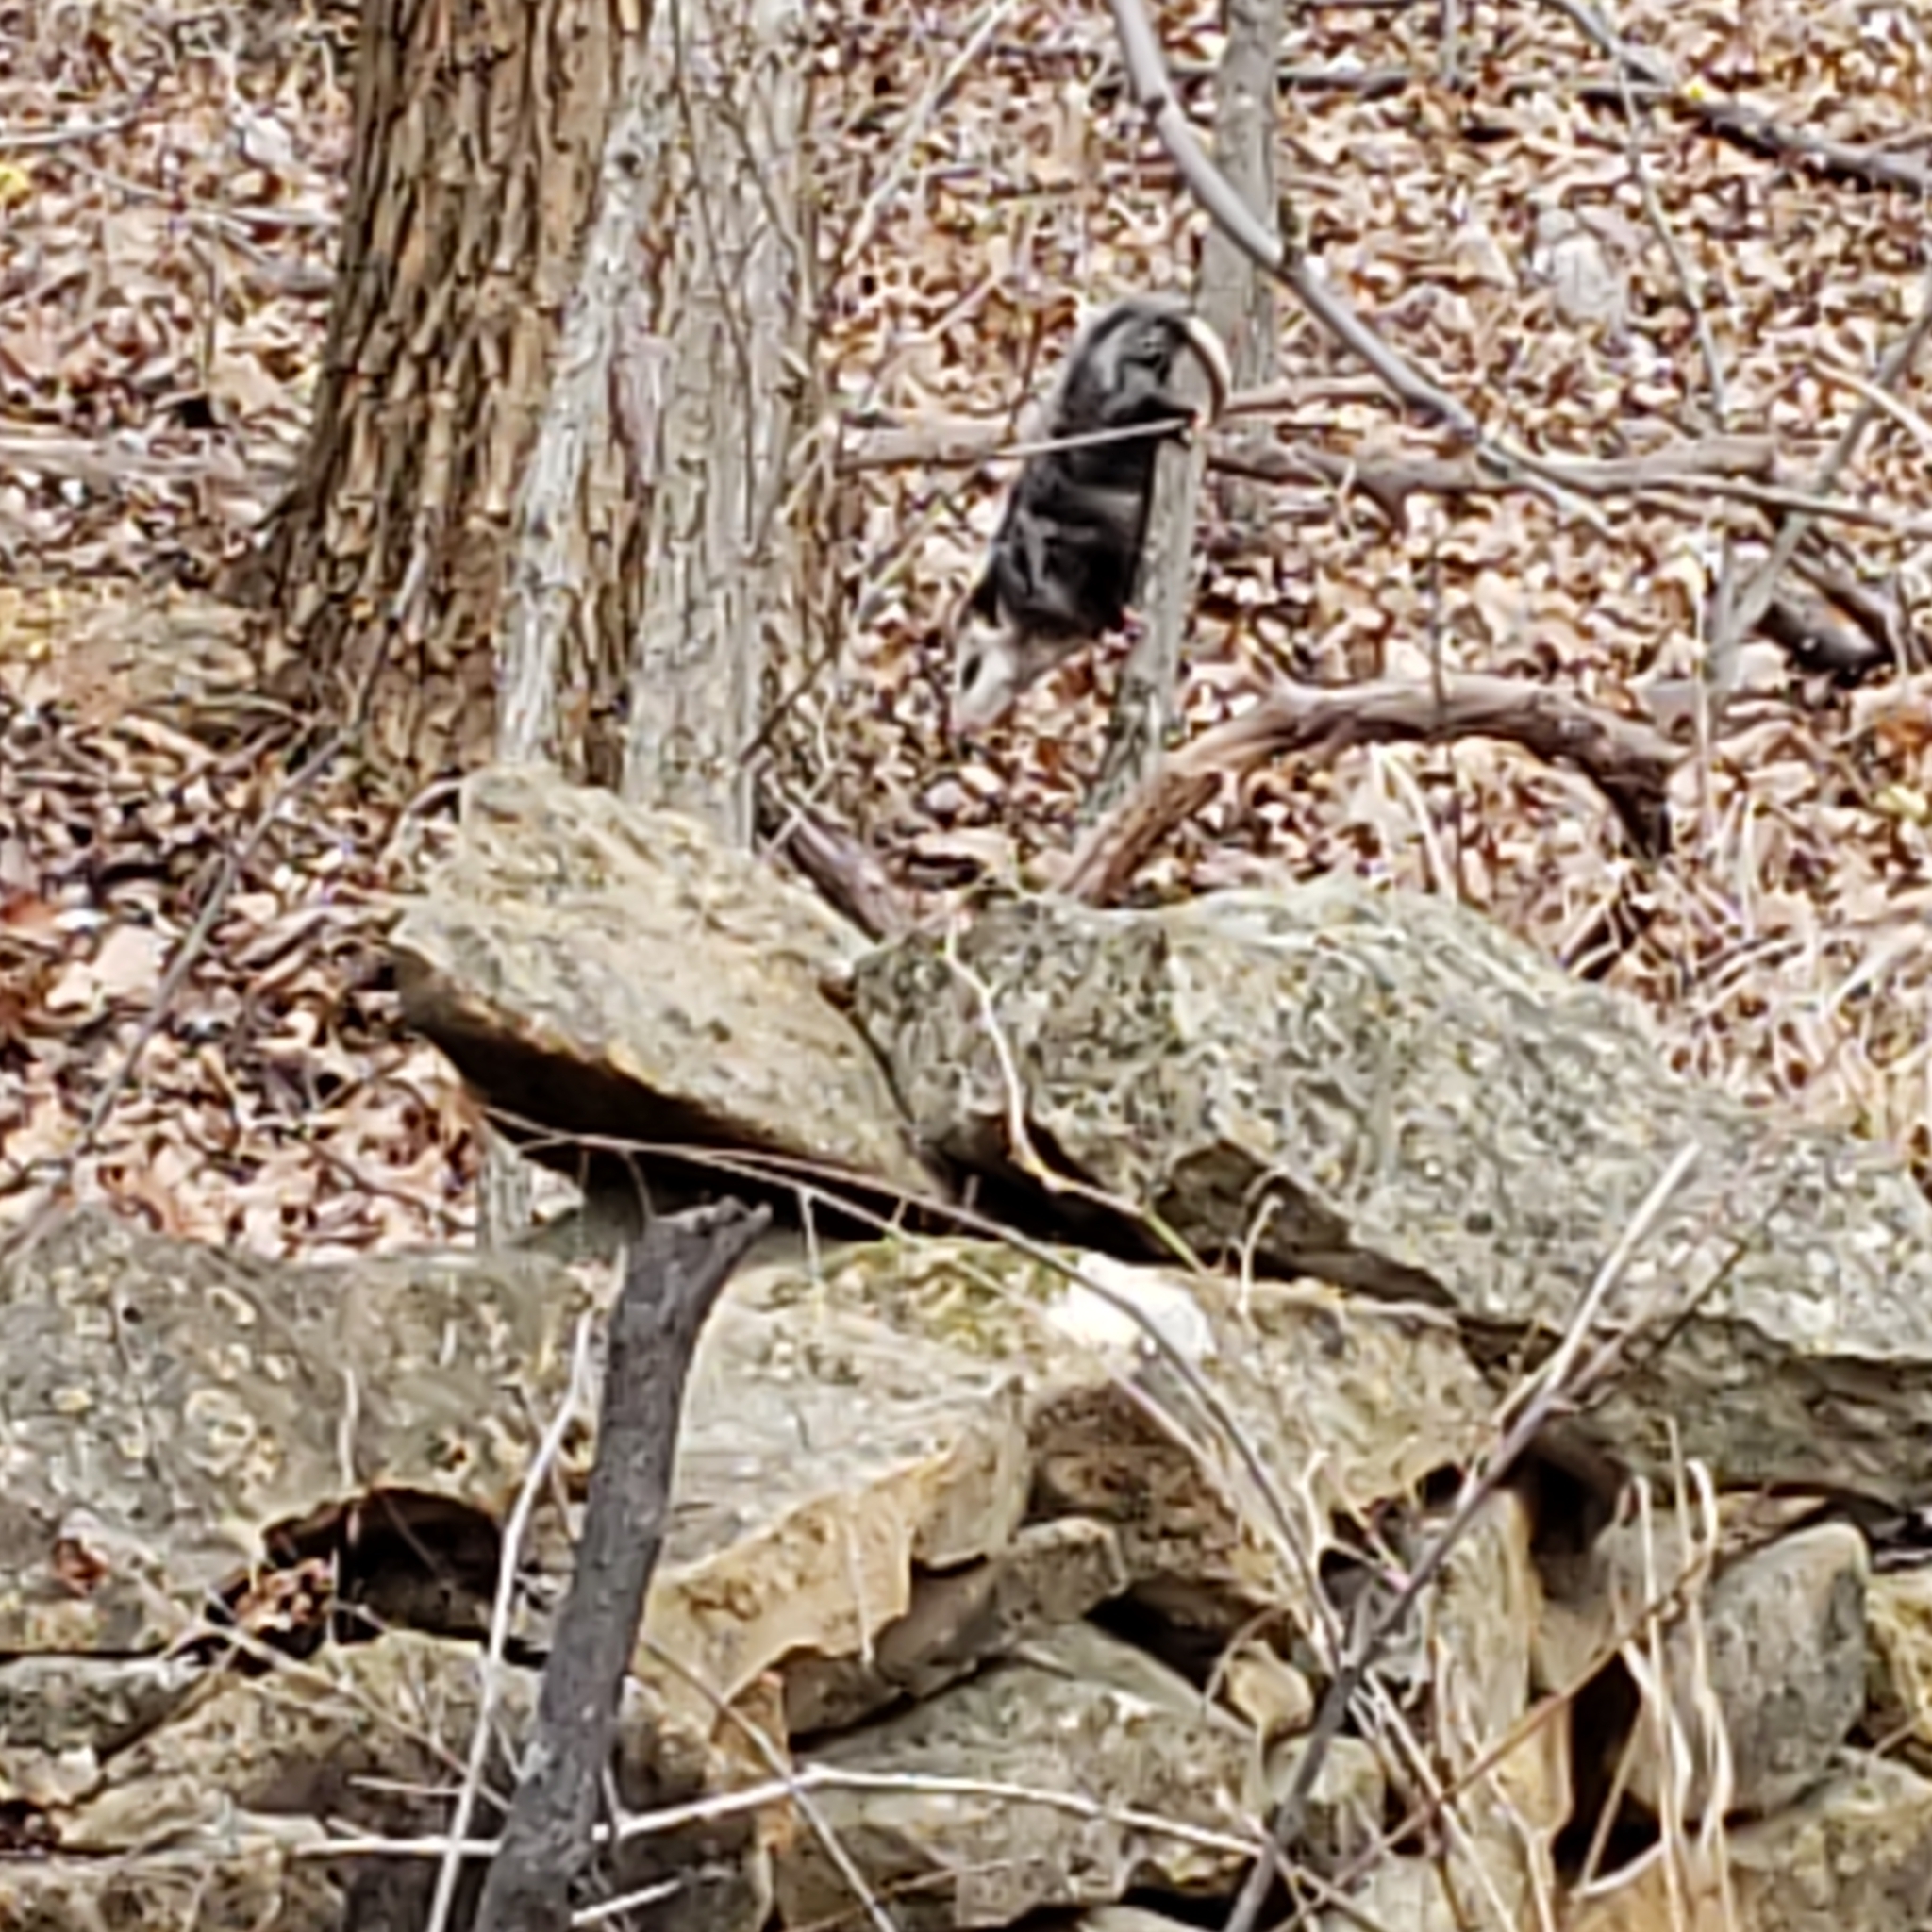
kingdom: Animalia
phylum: Chordata
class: Mammalia
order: Didelphimorphia
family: Didelphidae
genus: Didelphis
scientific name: Didelphis virginiana
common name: Virginia opossum
